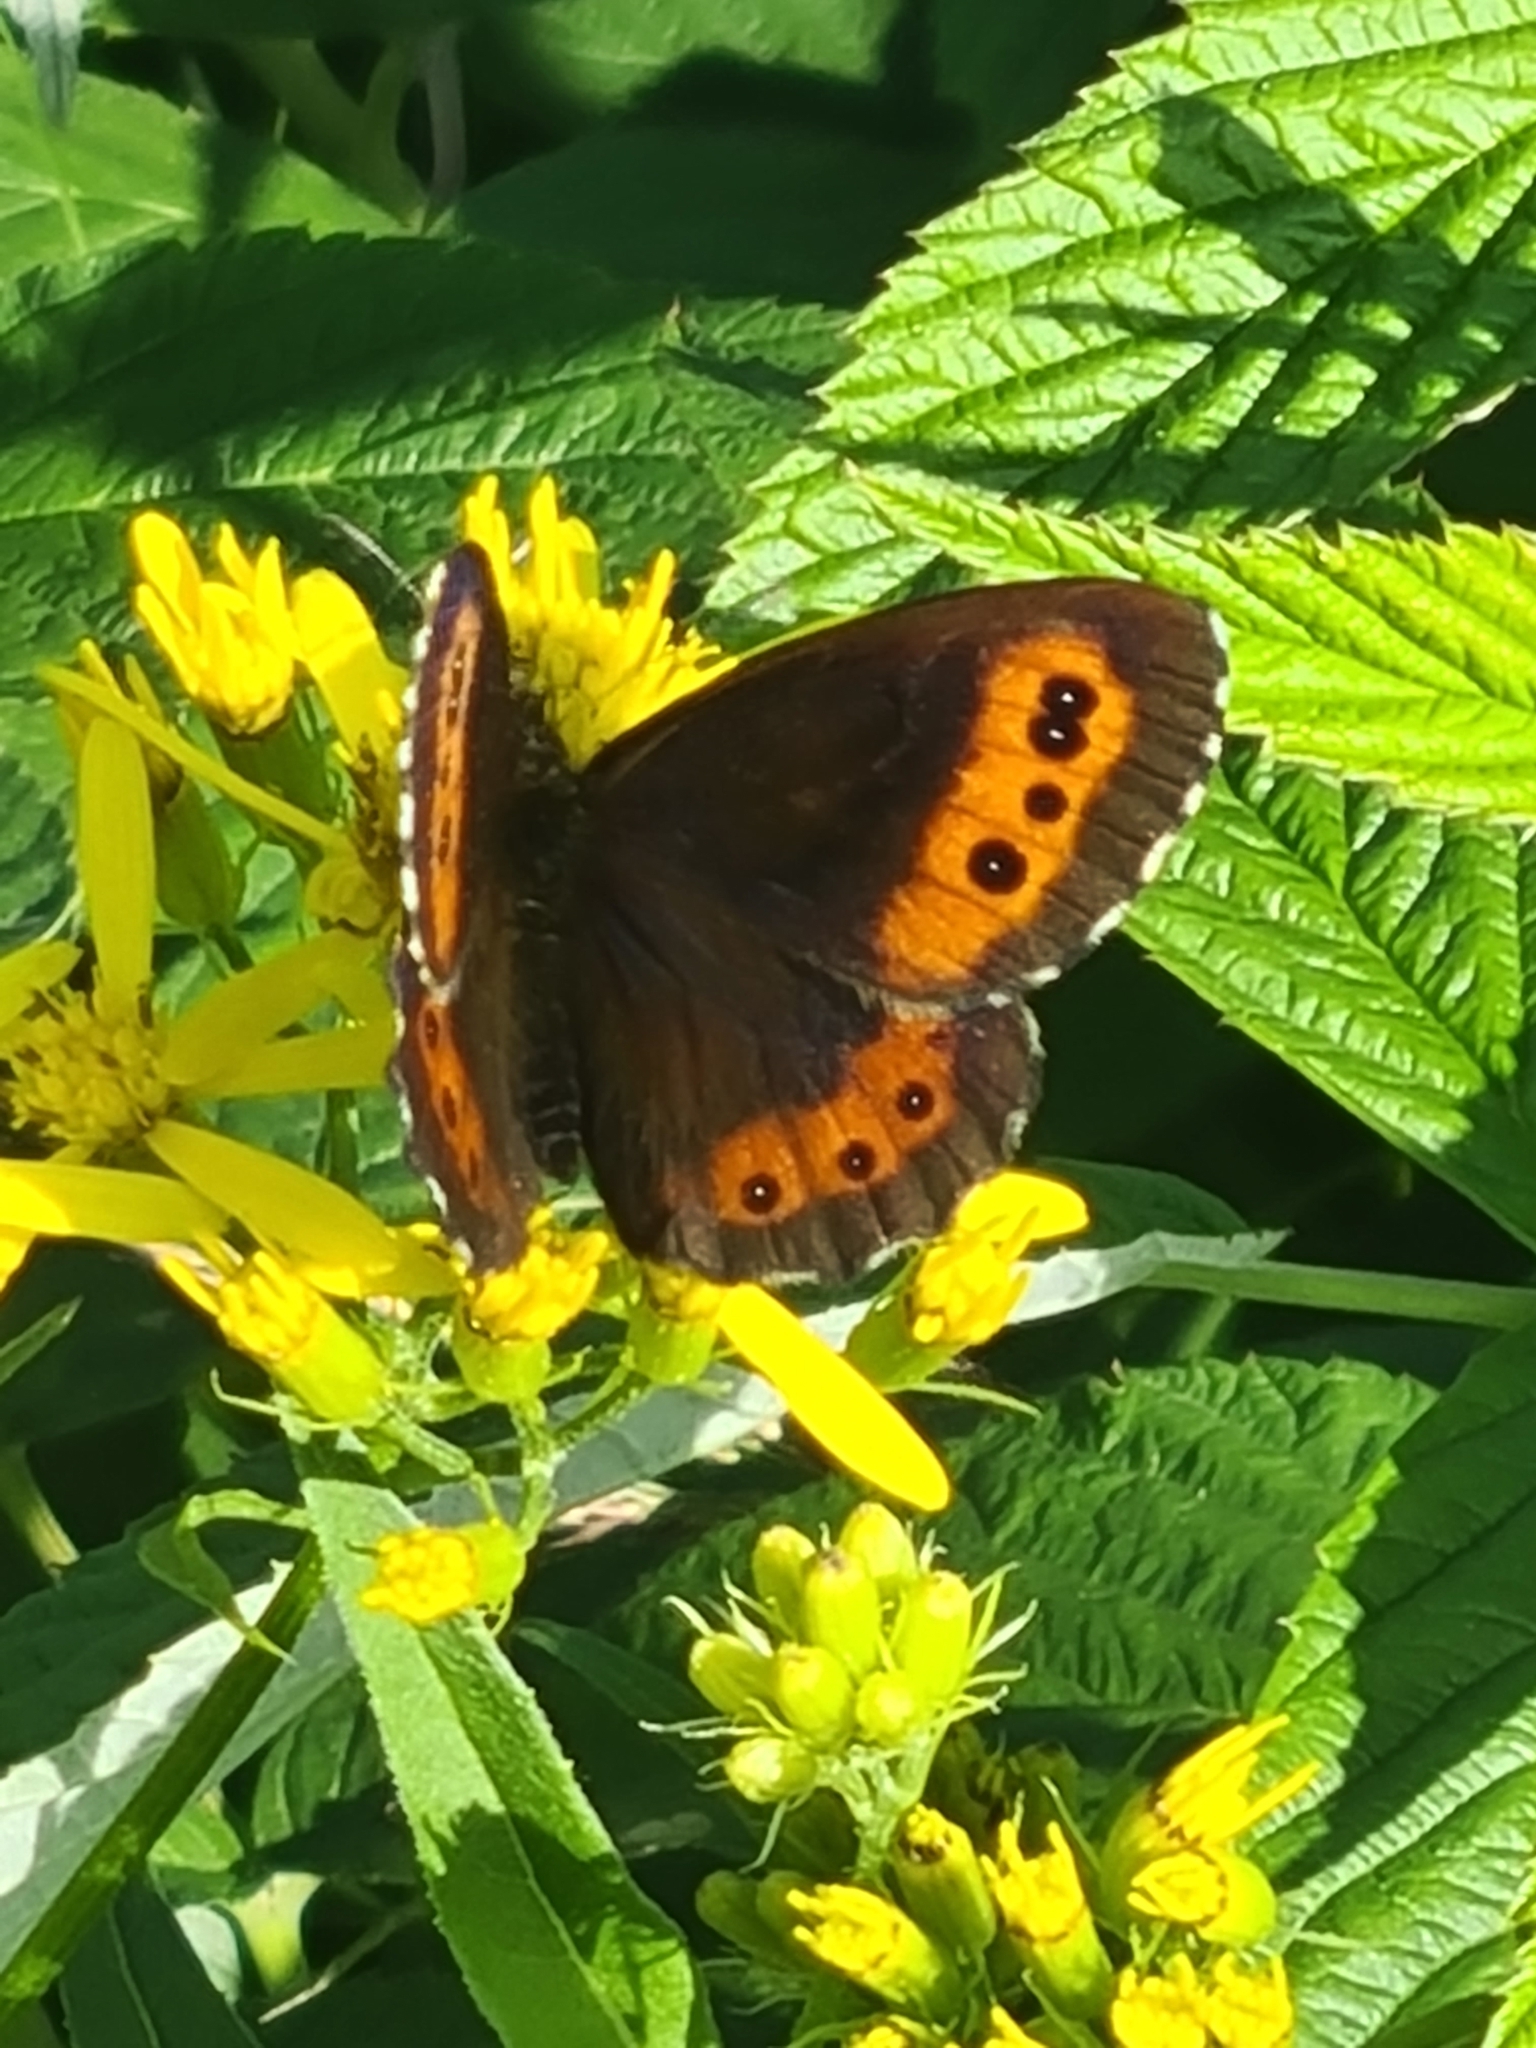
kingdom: Animalia
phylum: Arthropoda
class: Insecta
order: Lepidoptera
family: Nymphalidae
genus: Erebia
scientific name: Erebia ligea
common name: Arran brown
